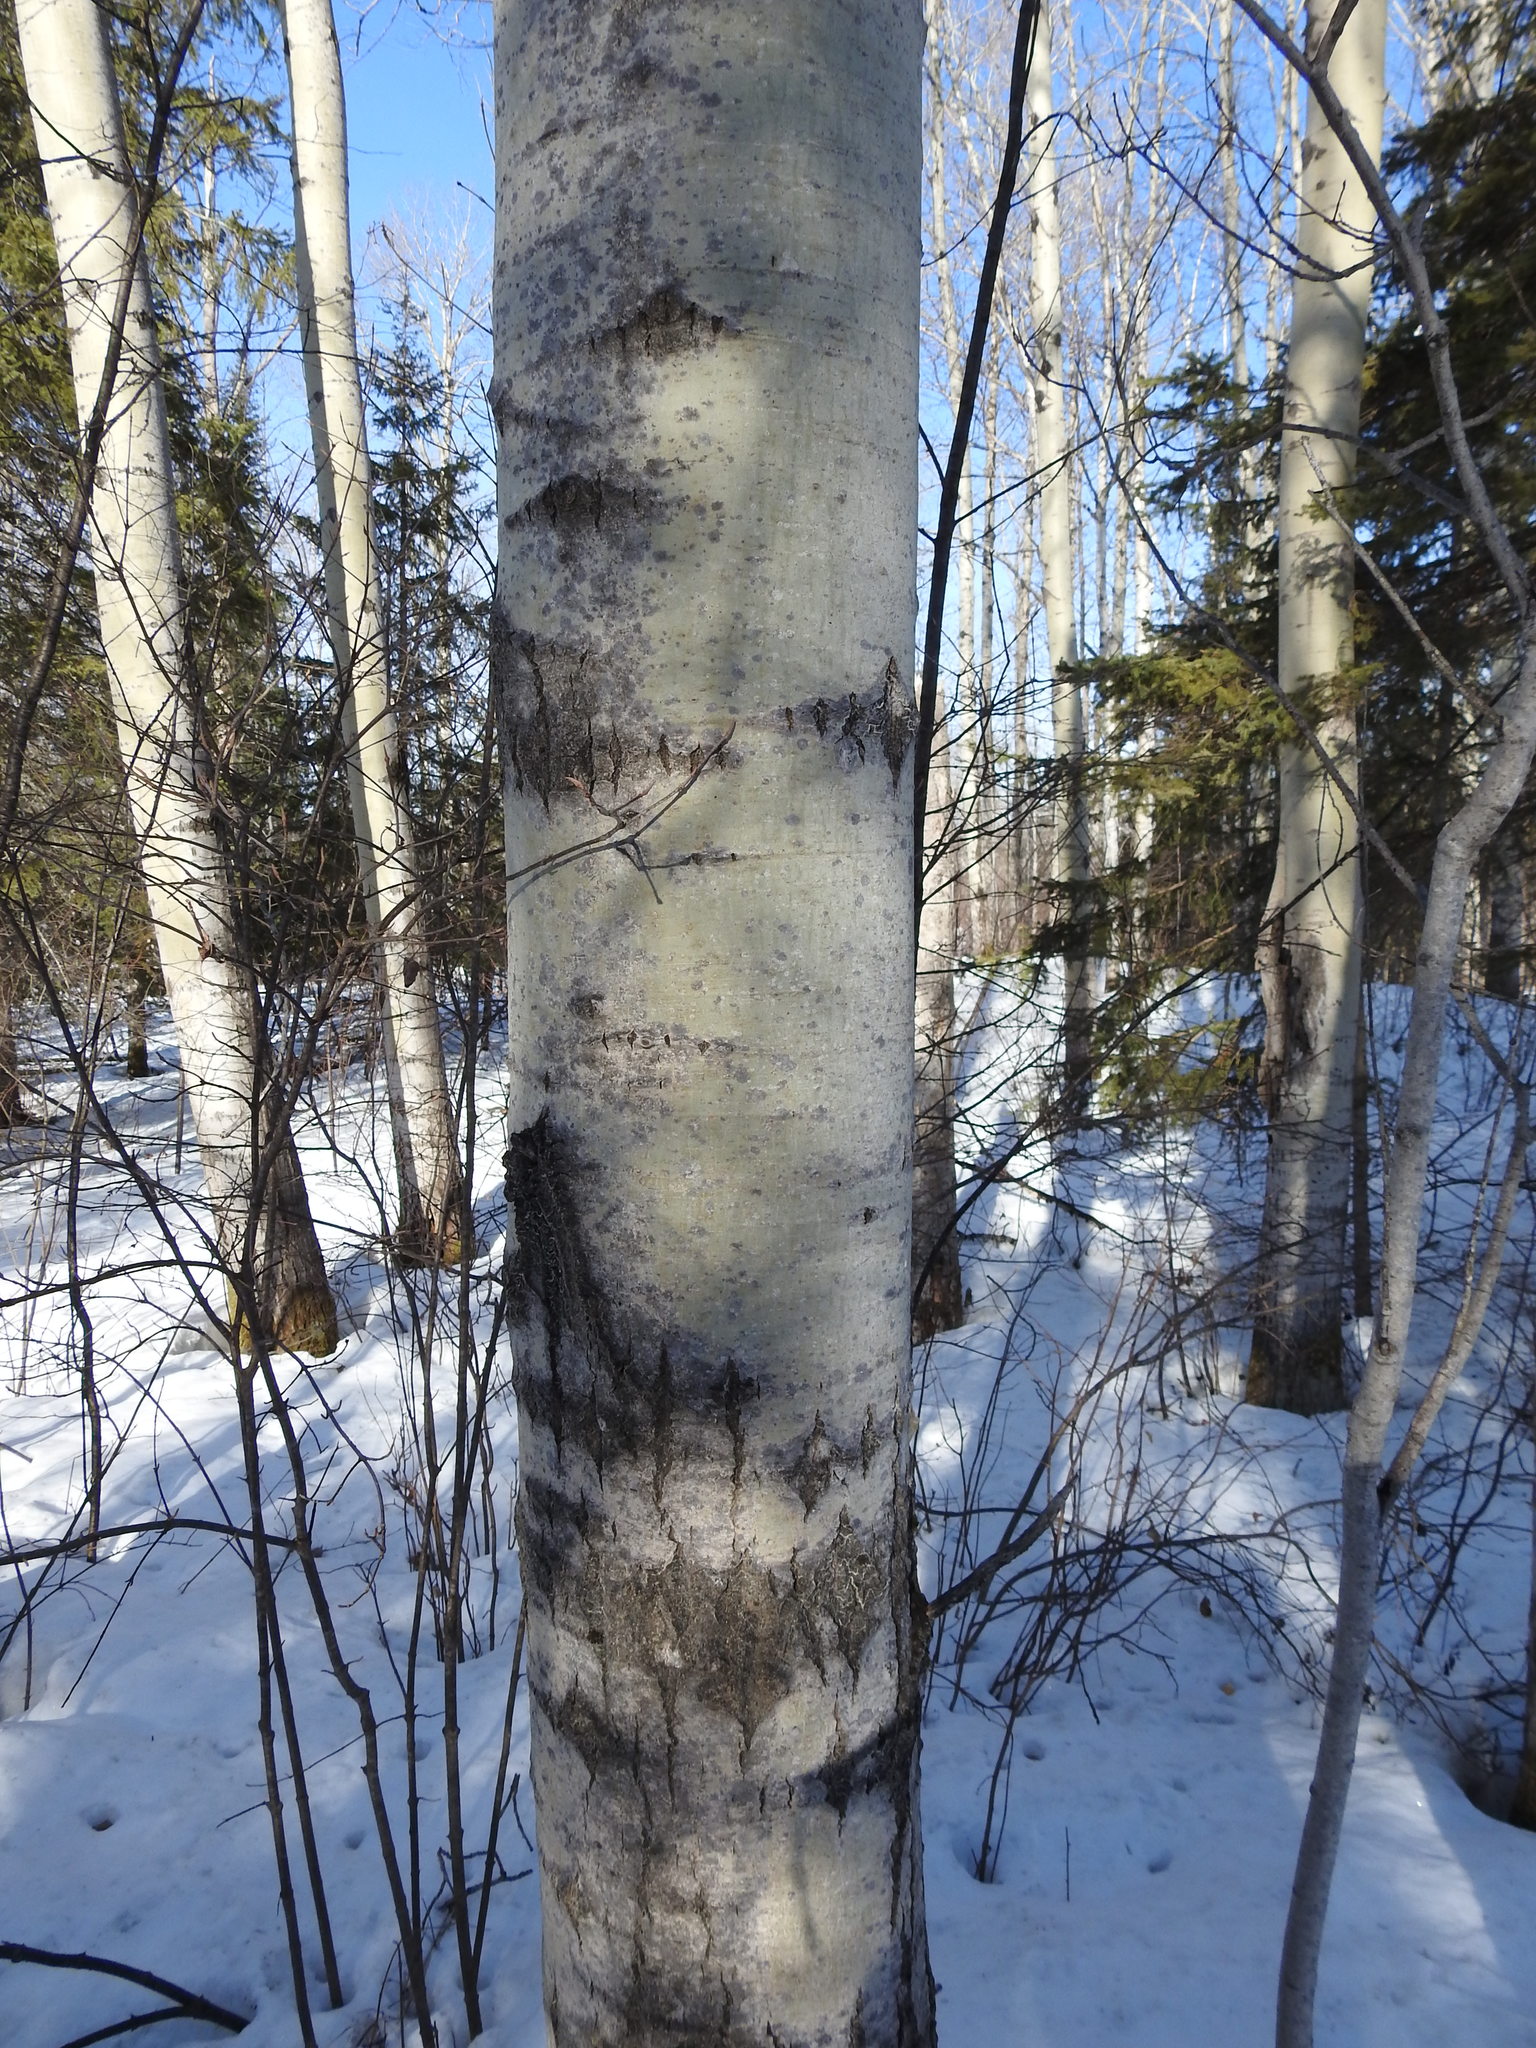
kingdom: Plantae
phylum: Tracheophyta
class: Magnoliopsida
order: Malpighiales
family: Salicaceae
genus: Populus
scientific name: Populus tremuloides
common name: Quaking aspen
